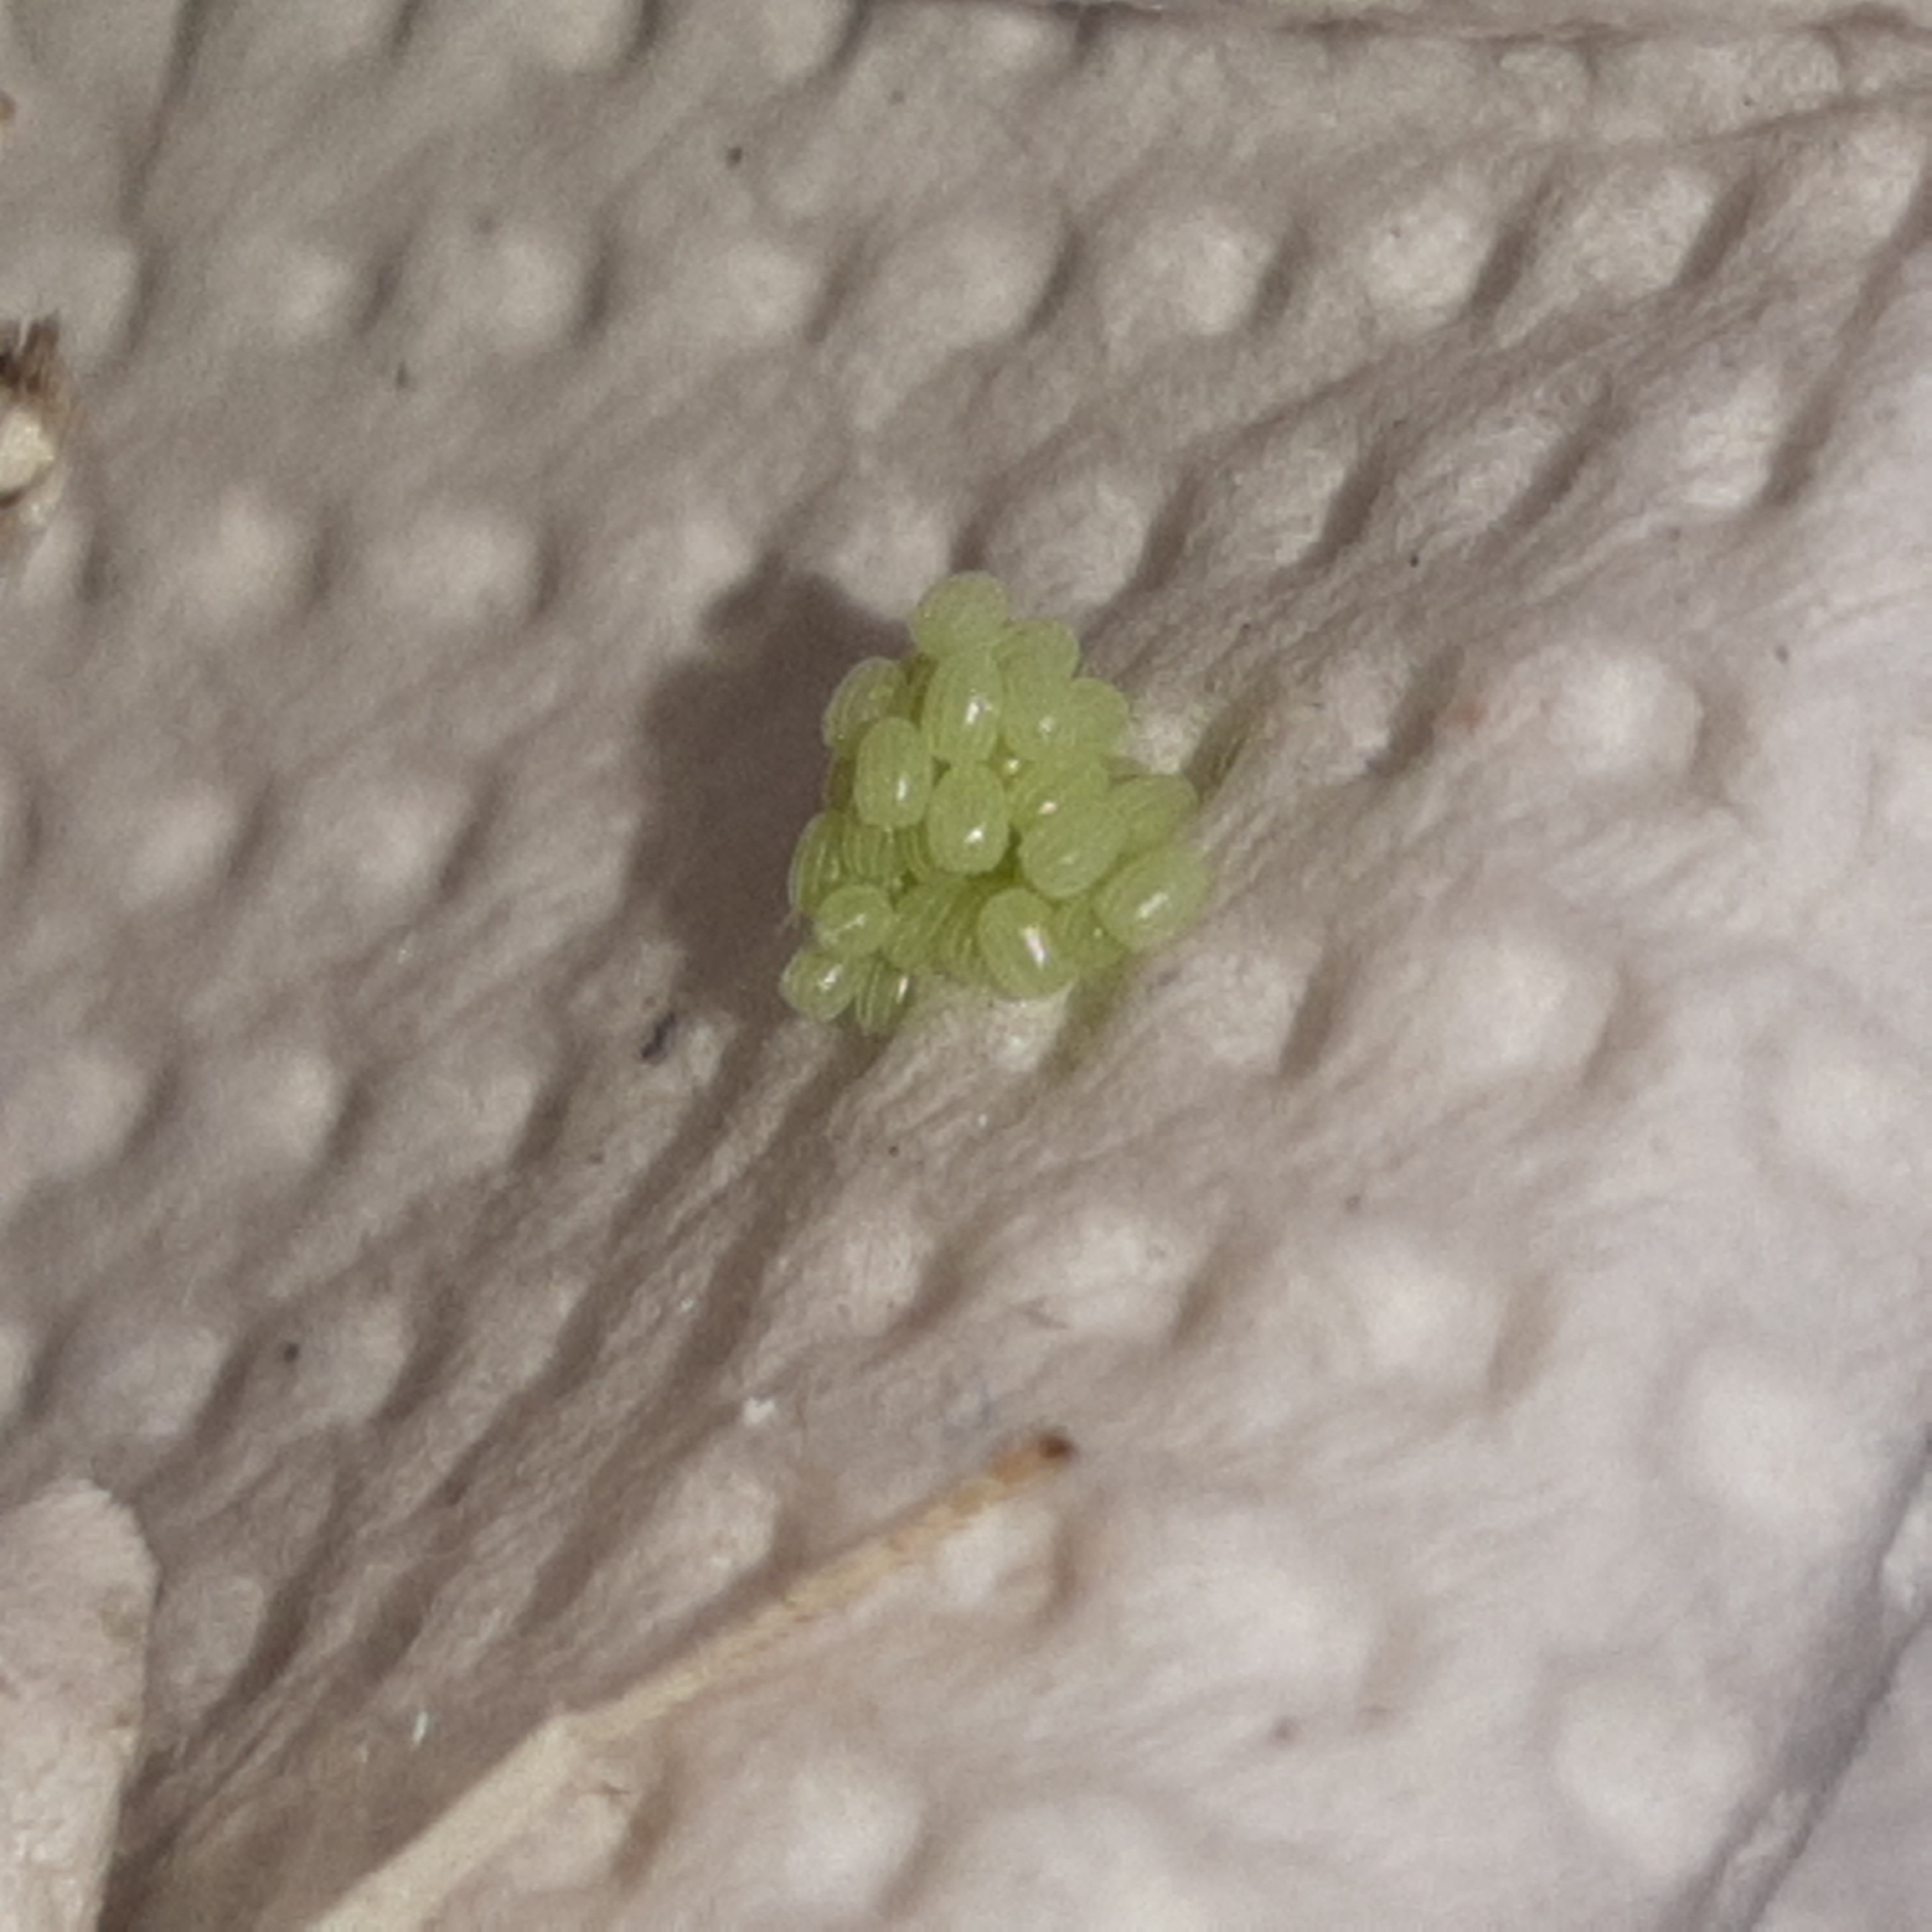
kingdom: Animalia
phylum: Arthropoda
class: Insecta
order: Lepidoptera
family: Geometridae
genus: Brachurapteryx
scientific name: Brachurapteryx tesserata
